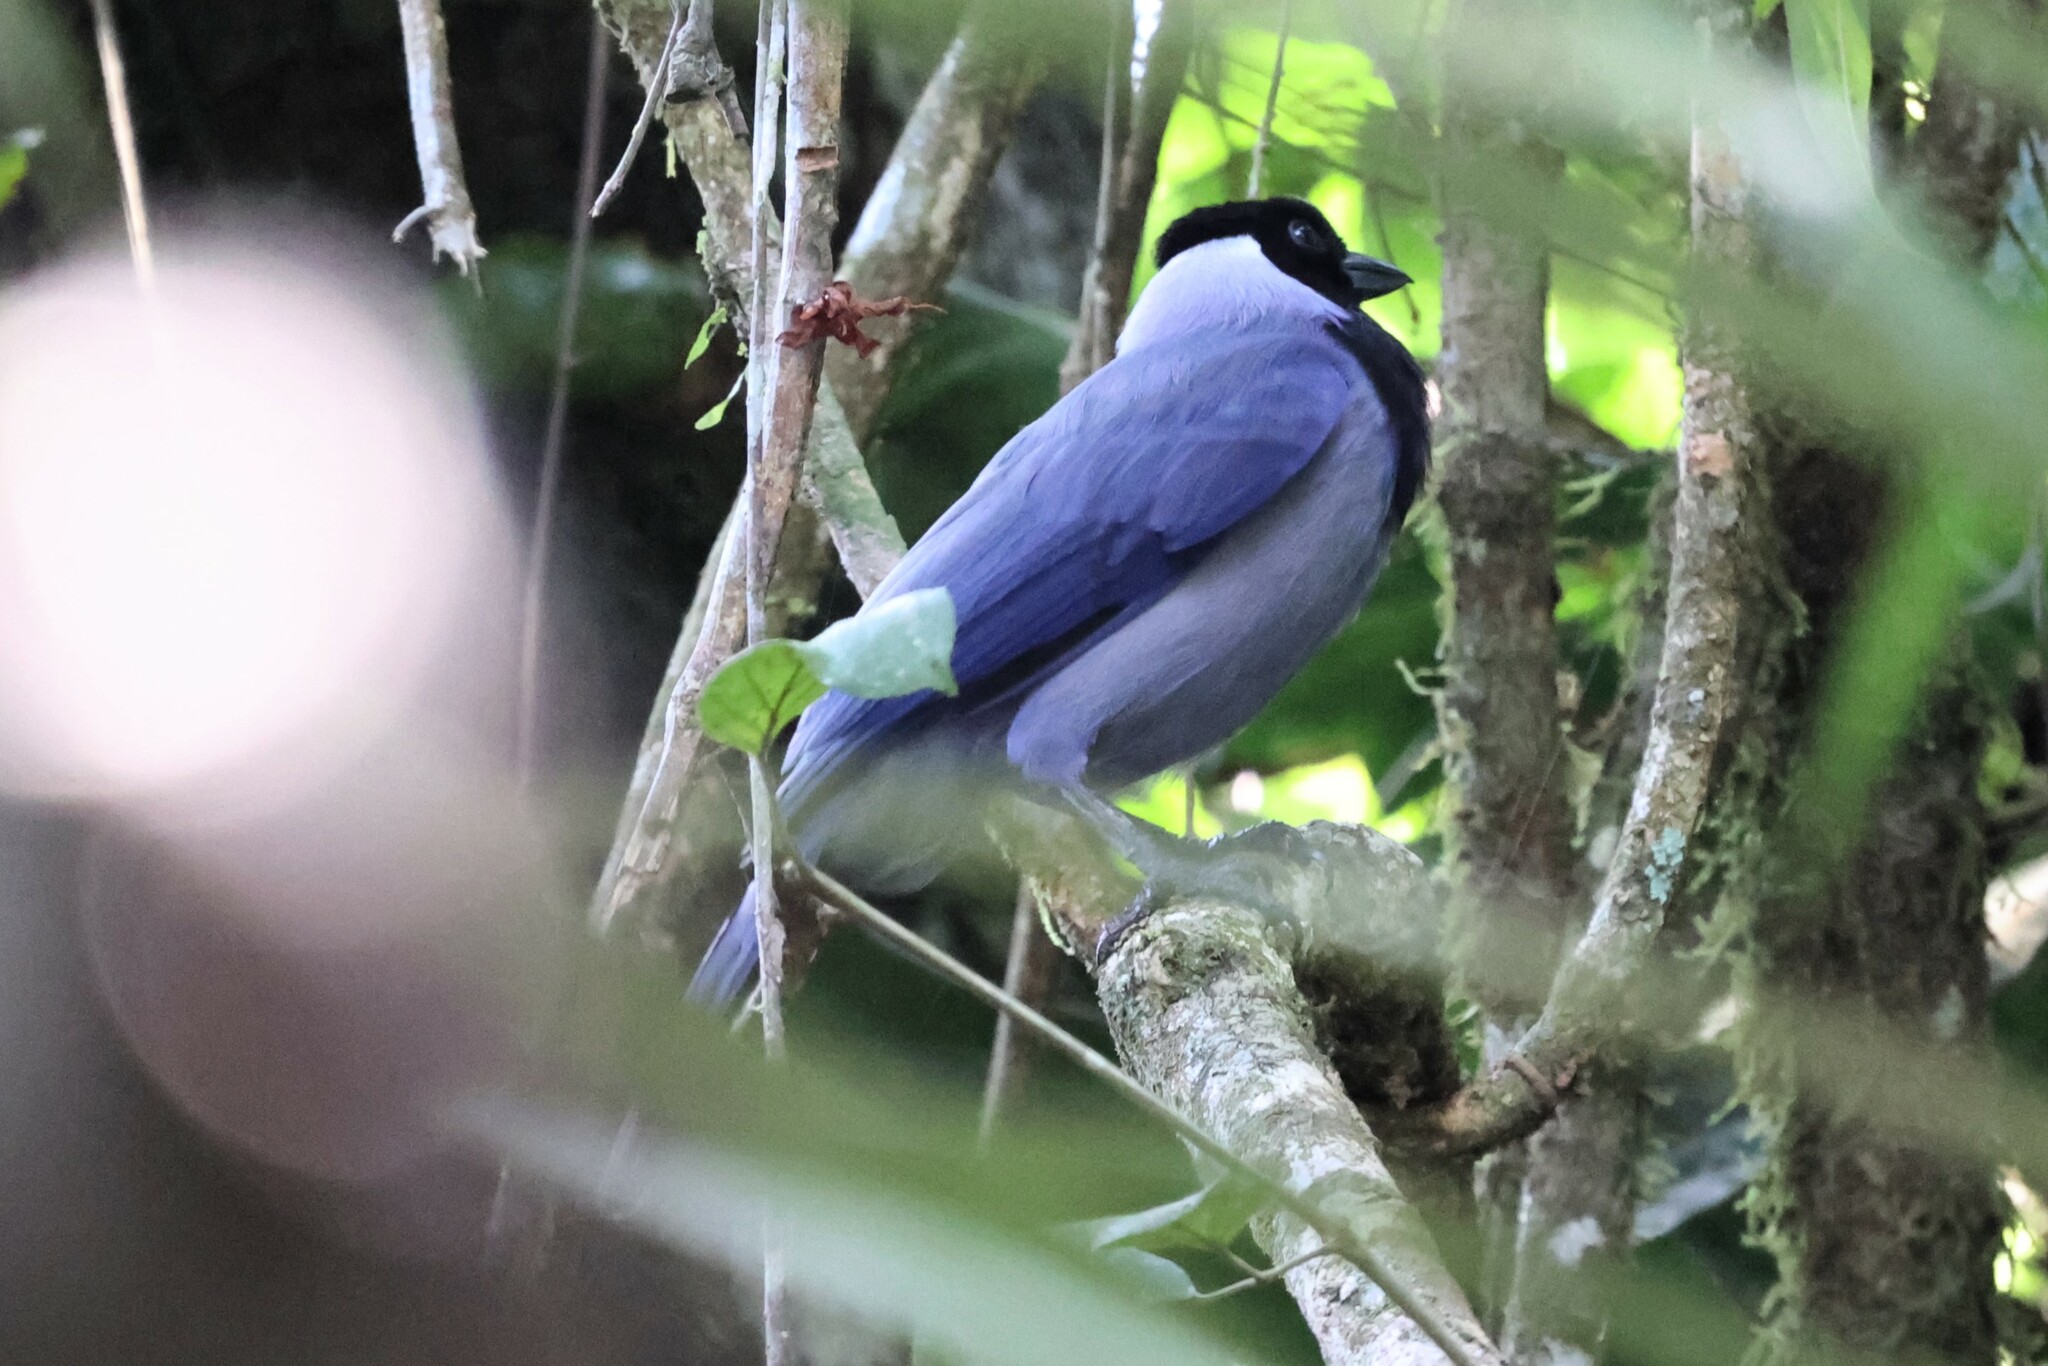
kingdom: Animalia
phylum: Chordata
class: Aves
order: Passeriformes
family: Corvidae
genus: Cyanocorax
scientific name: Cyanocorax violaceus
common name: Violaceous jay
